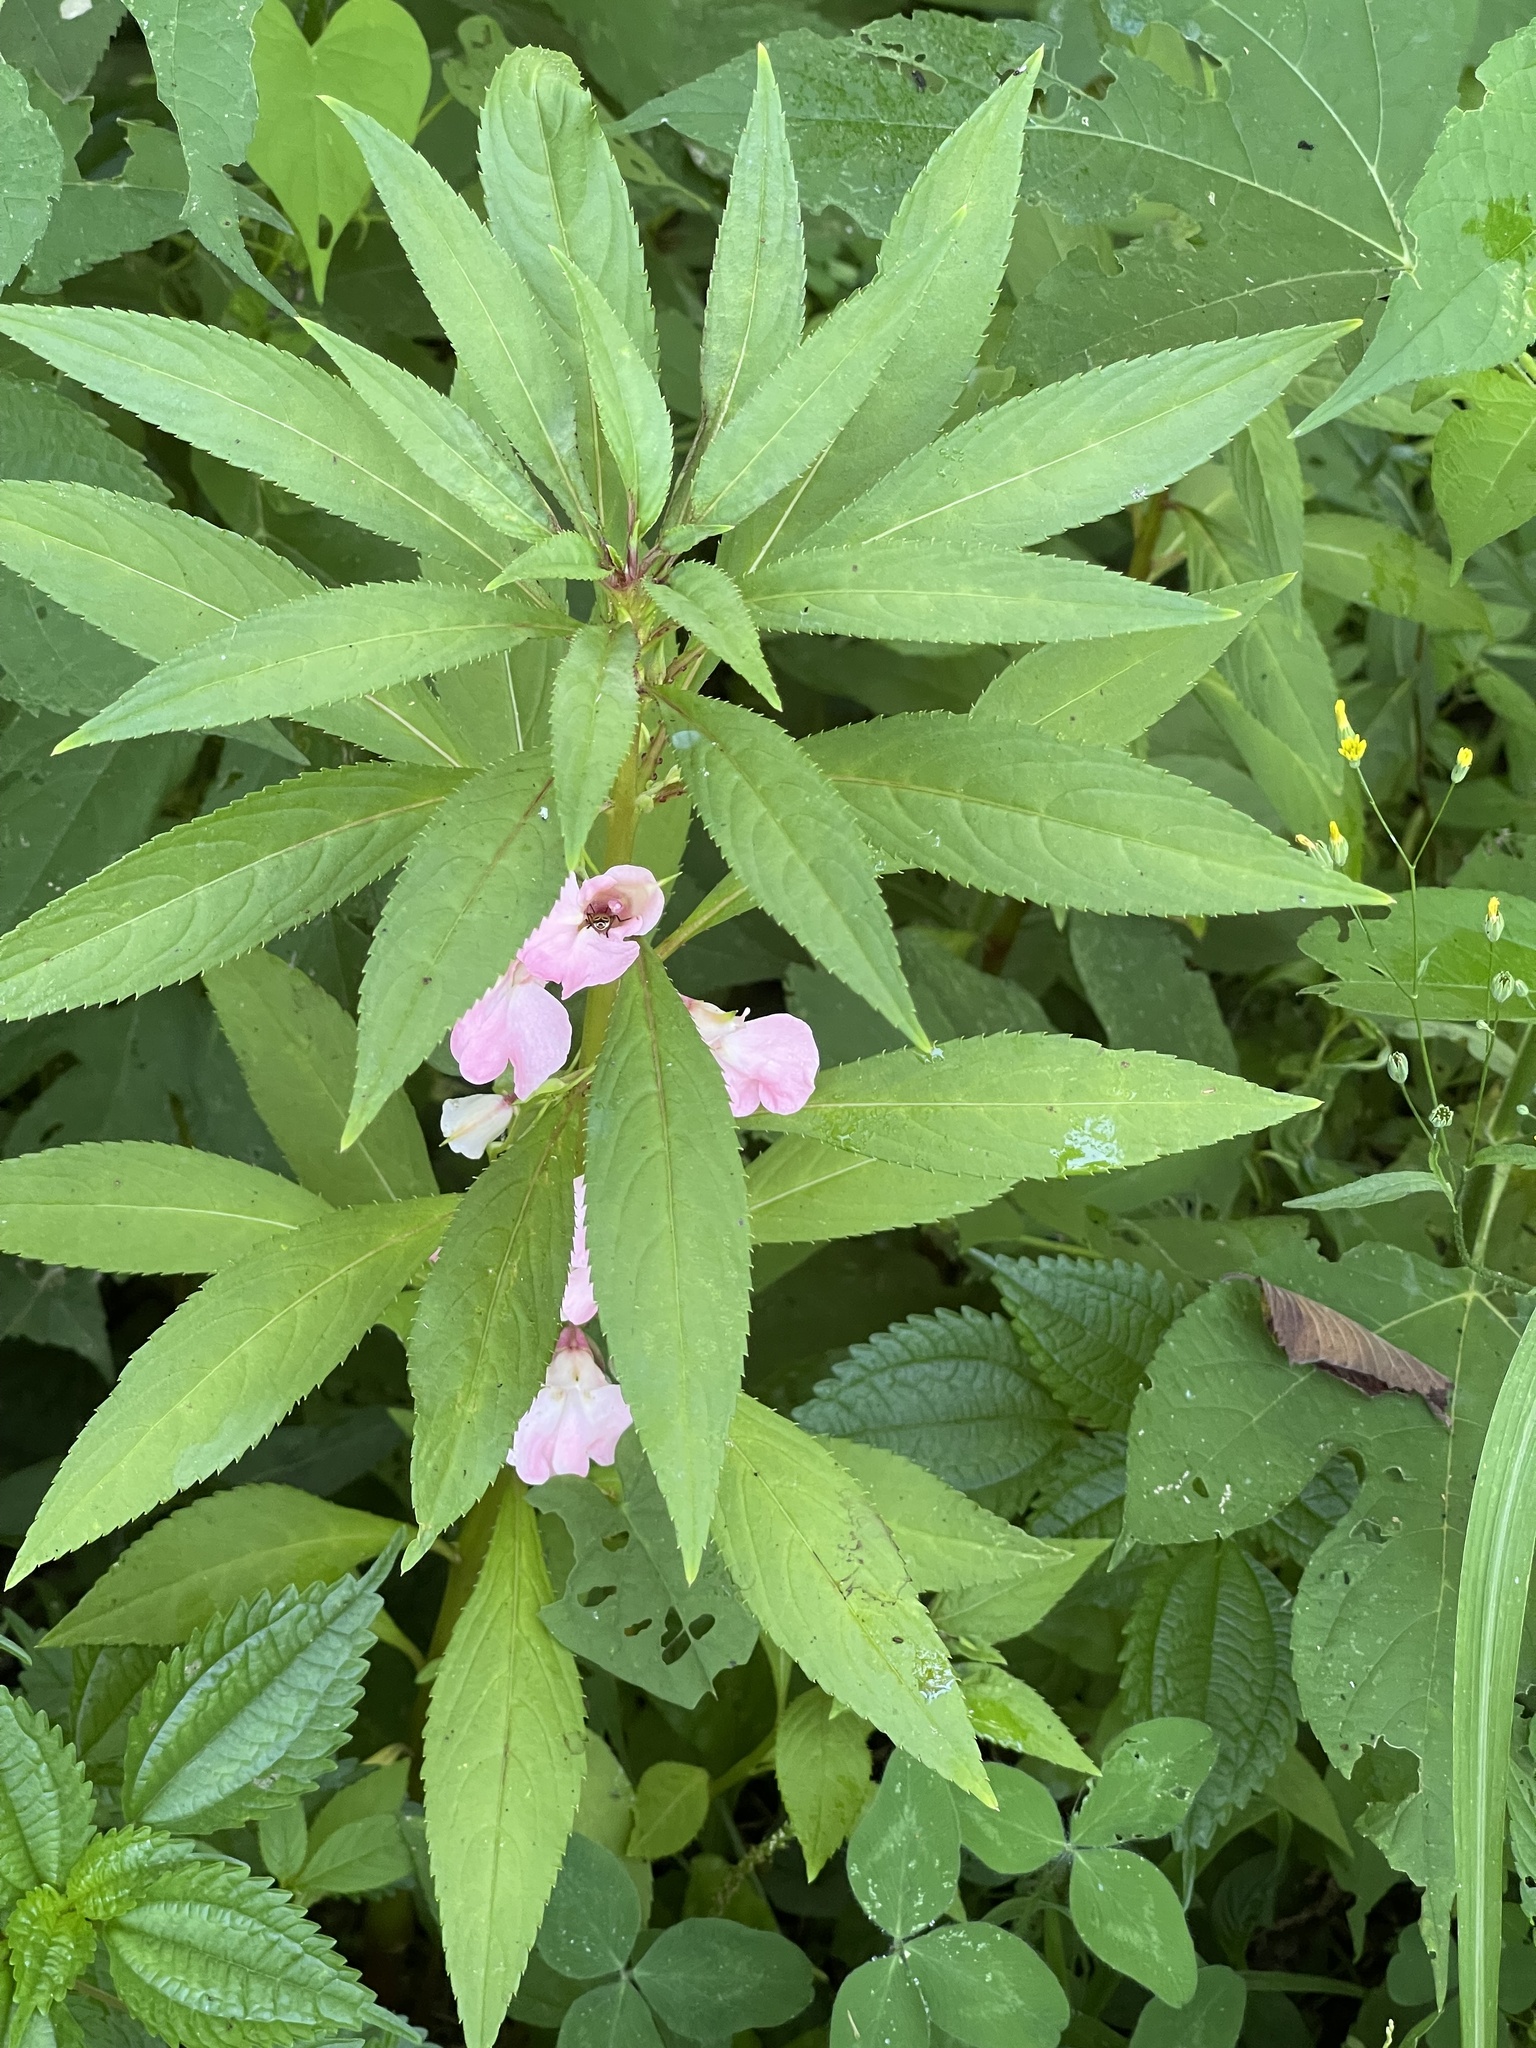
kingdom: Plantae
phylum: Tracheophyta
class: Magnoliopsida
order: Ericales
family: Balsaminaceae
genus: Impatiens
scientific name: Impatiens balsamina
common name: Balsam
